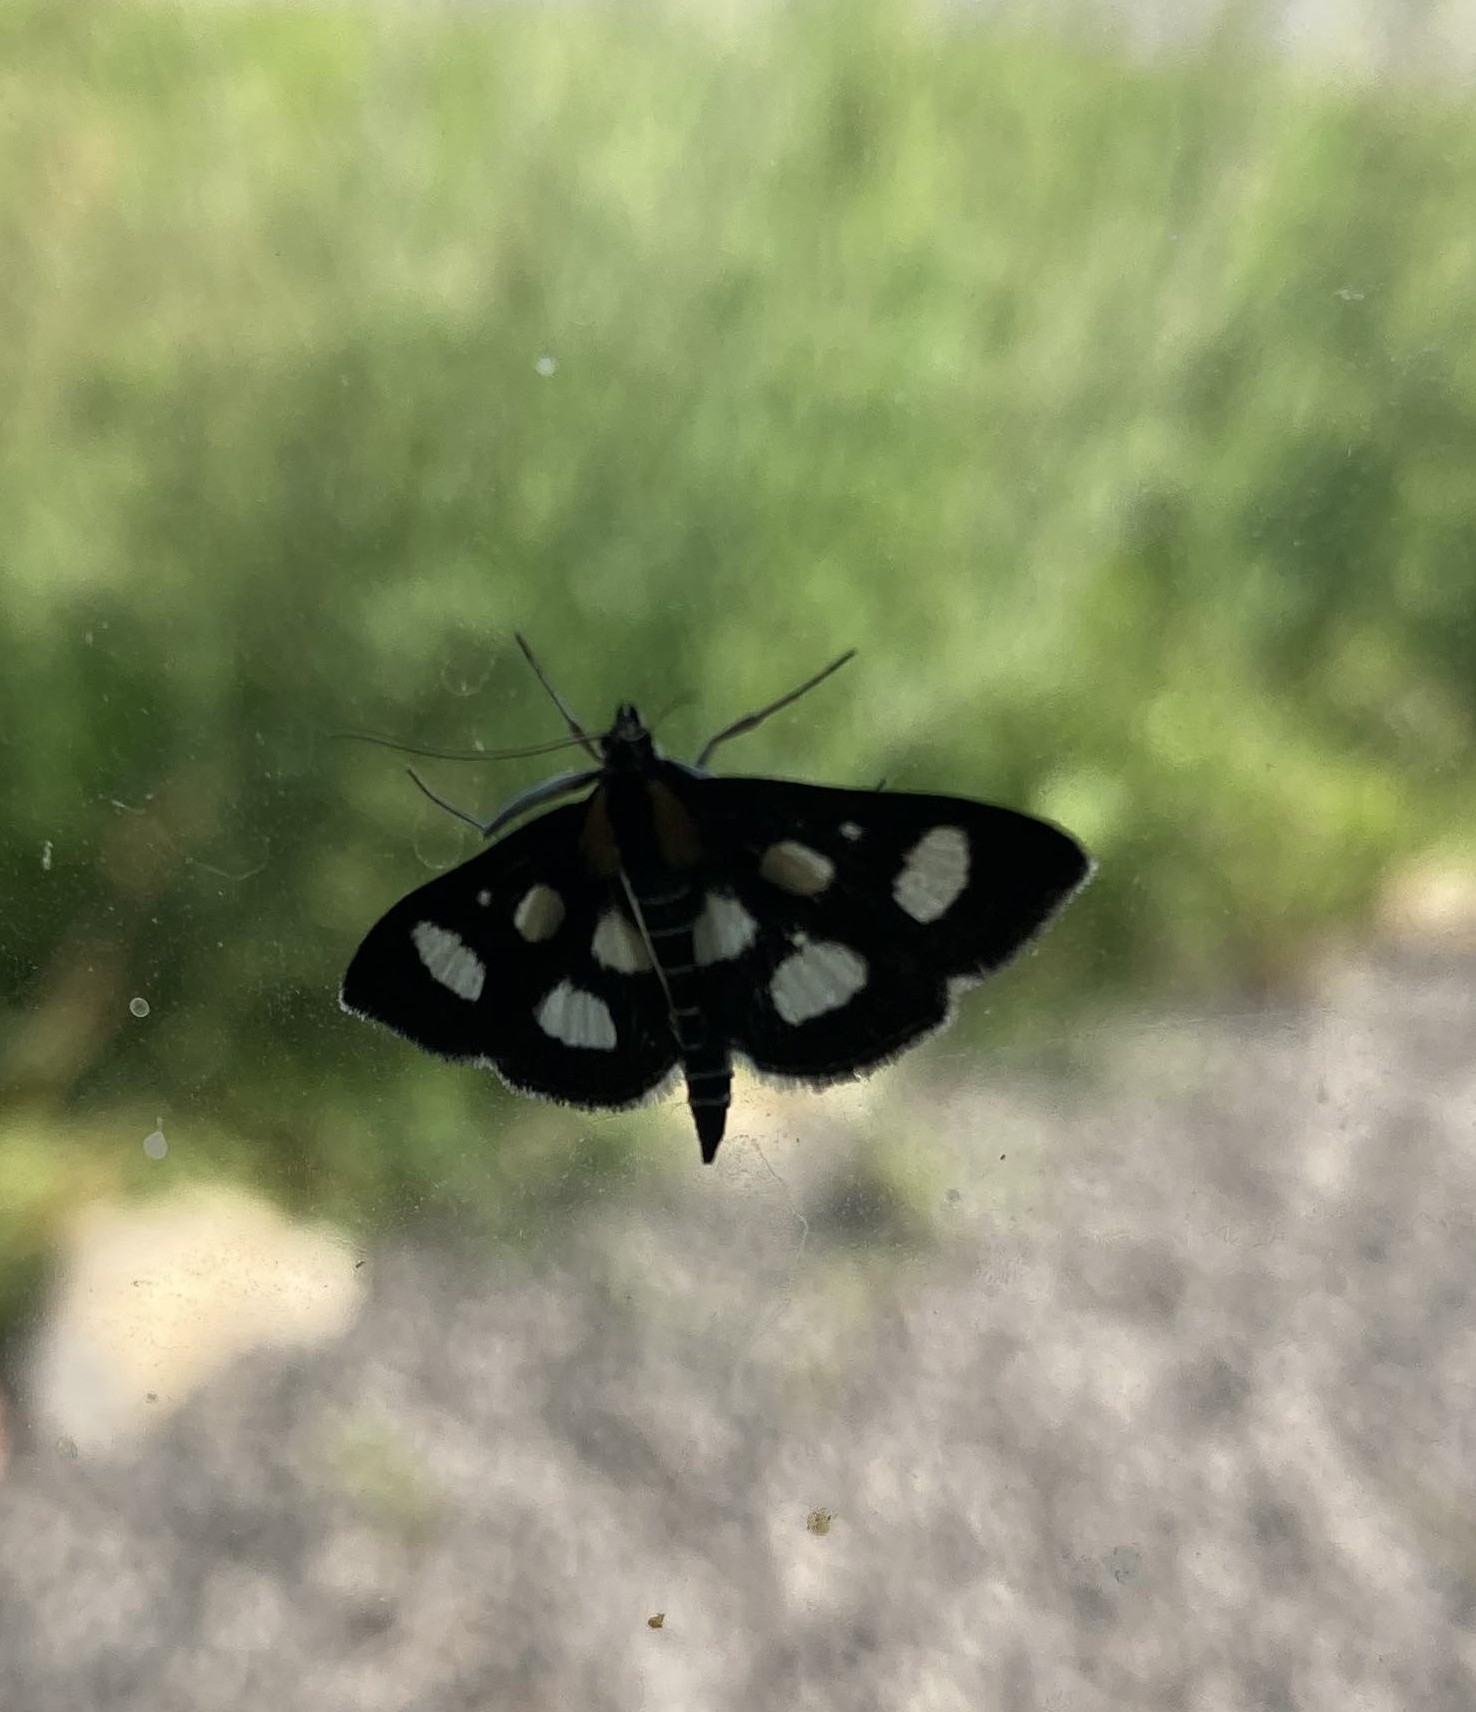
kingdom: Animalia
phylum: Arthropoda
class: Insecta
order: Lepidoptera
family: Crambidae
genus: Anania
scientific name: Anania funebris
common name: White-spotted sable moth
